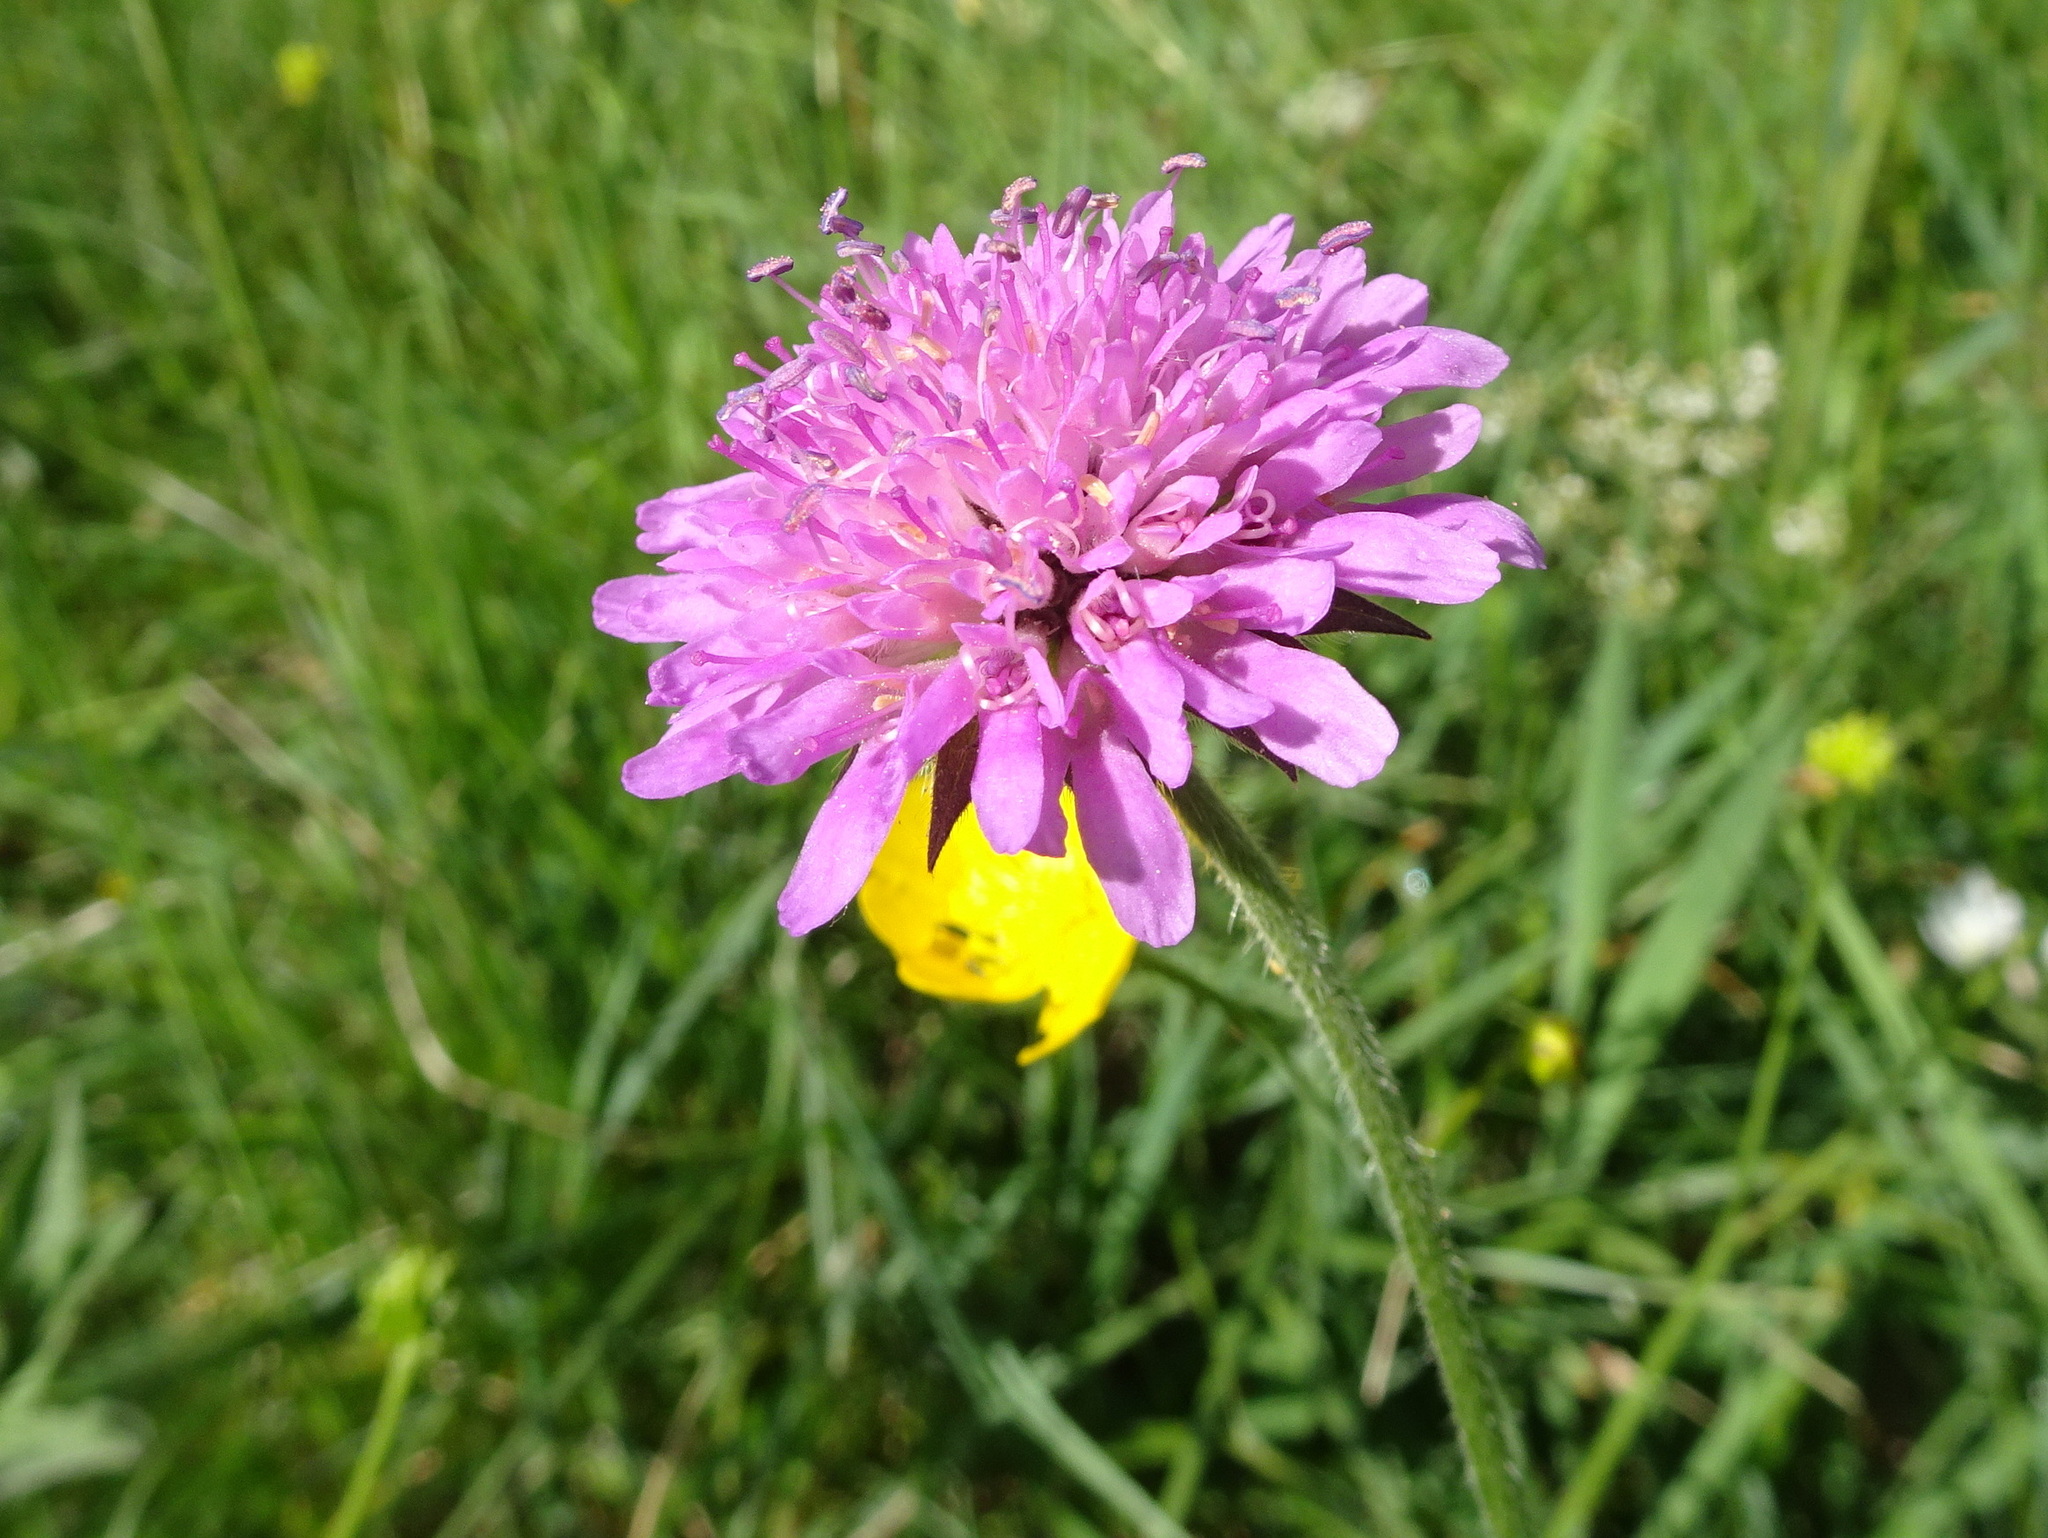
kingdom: Plantae
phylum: Tracheophyta
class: Magnoliopsida
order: Dipsacales
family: Caprifoliaceae
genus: Knautia
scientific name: Knautia dipsacifolia
